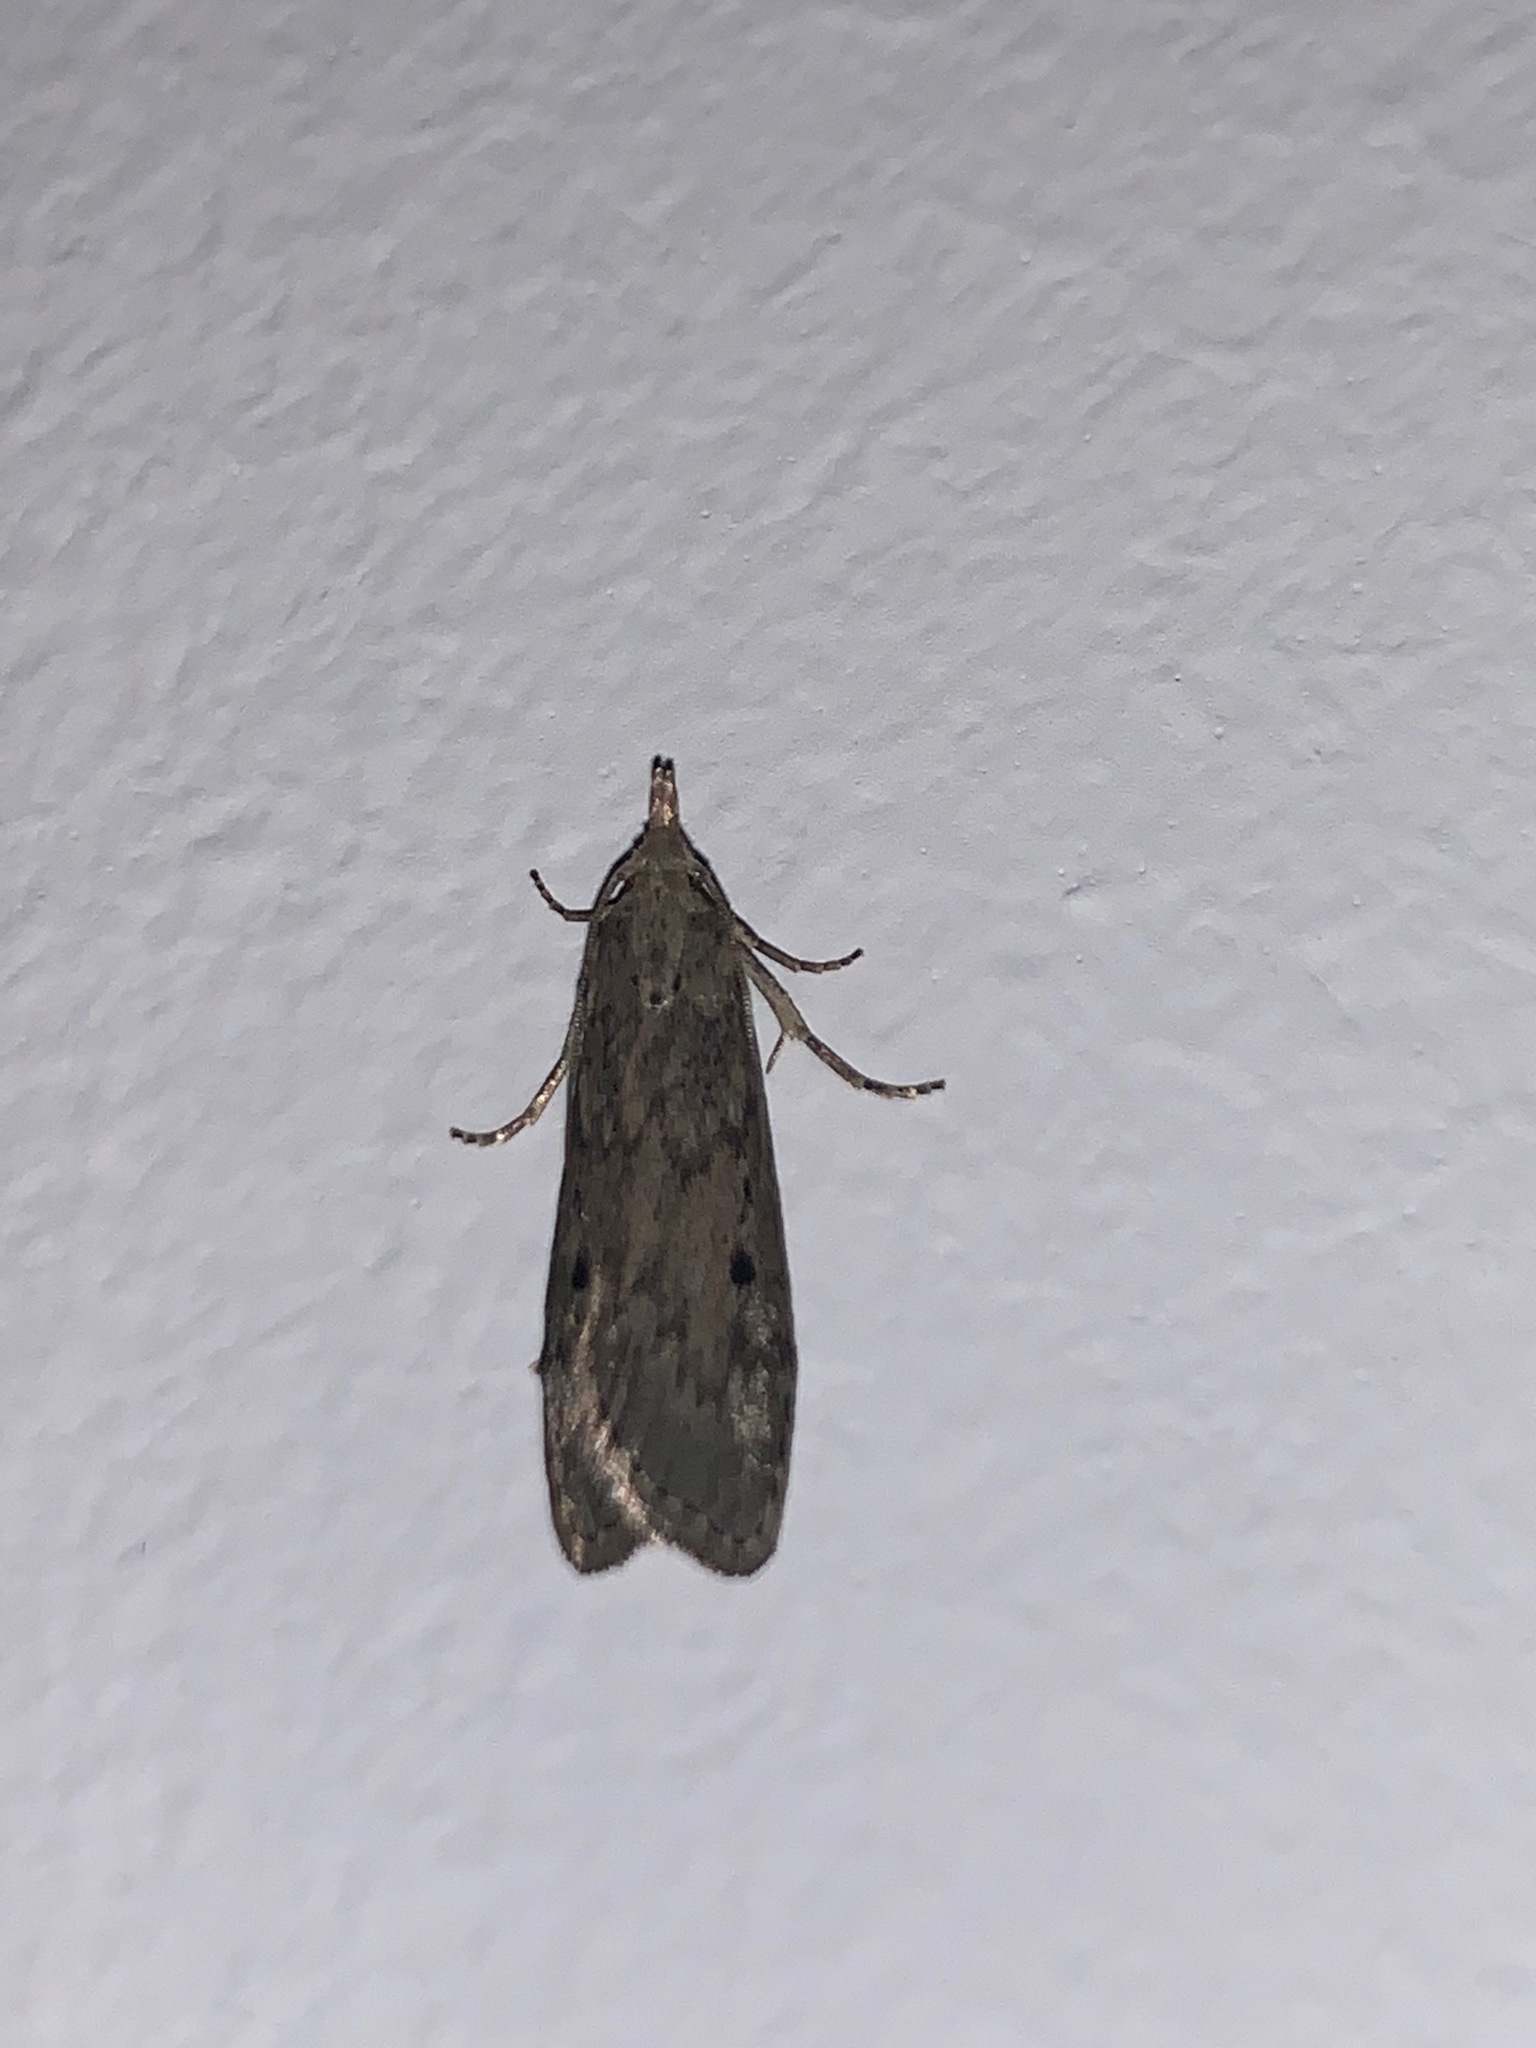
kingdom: Animalia
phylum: Arthropoda
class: Insecta
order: Lepidoptera
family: Pyralidae
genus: Aphomia
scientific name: Aphomia sociella
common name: Bee moth
